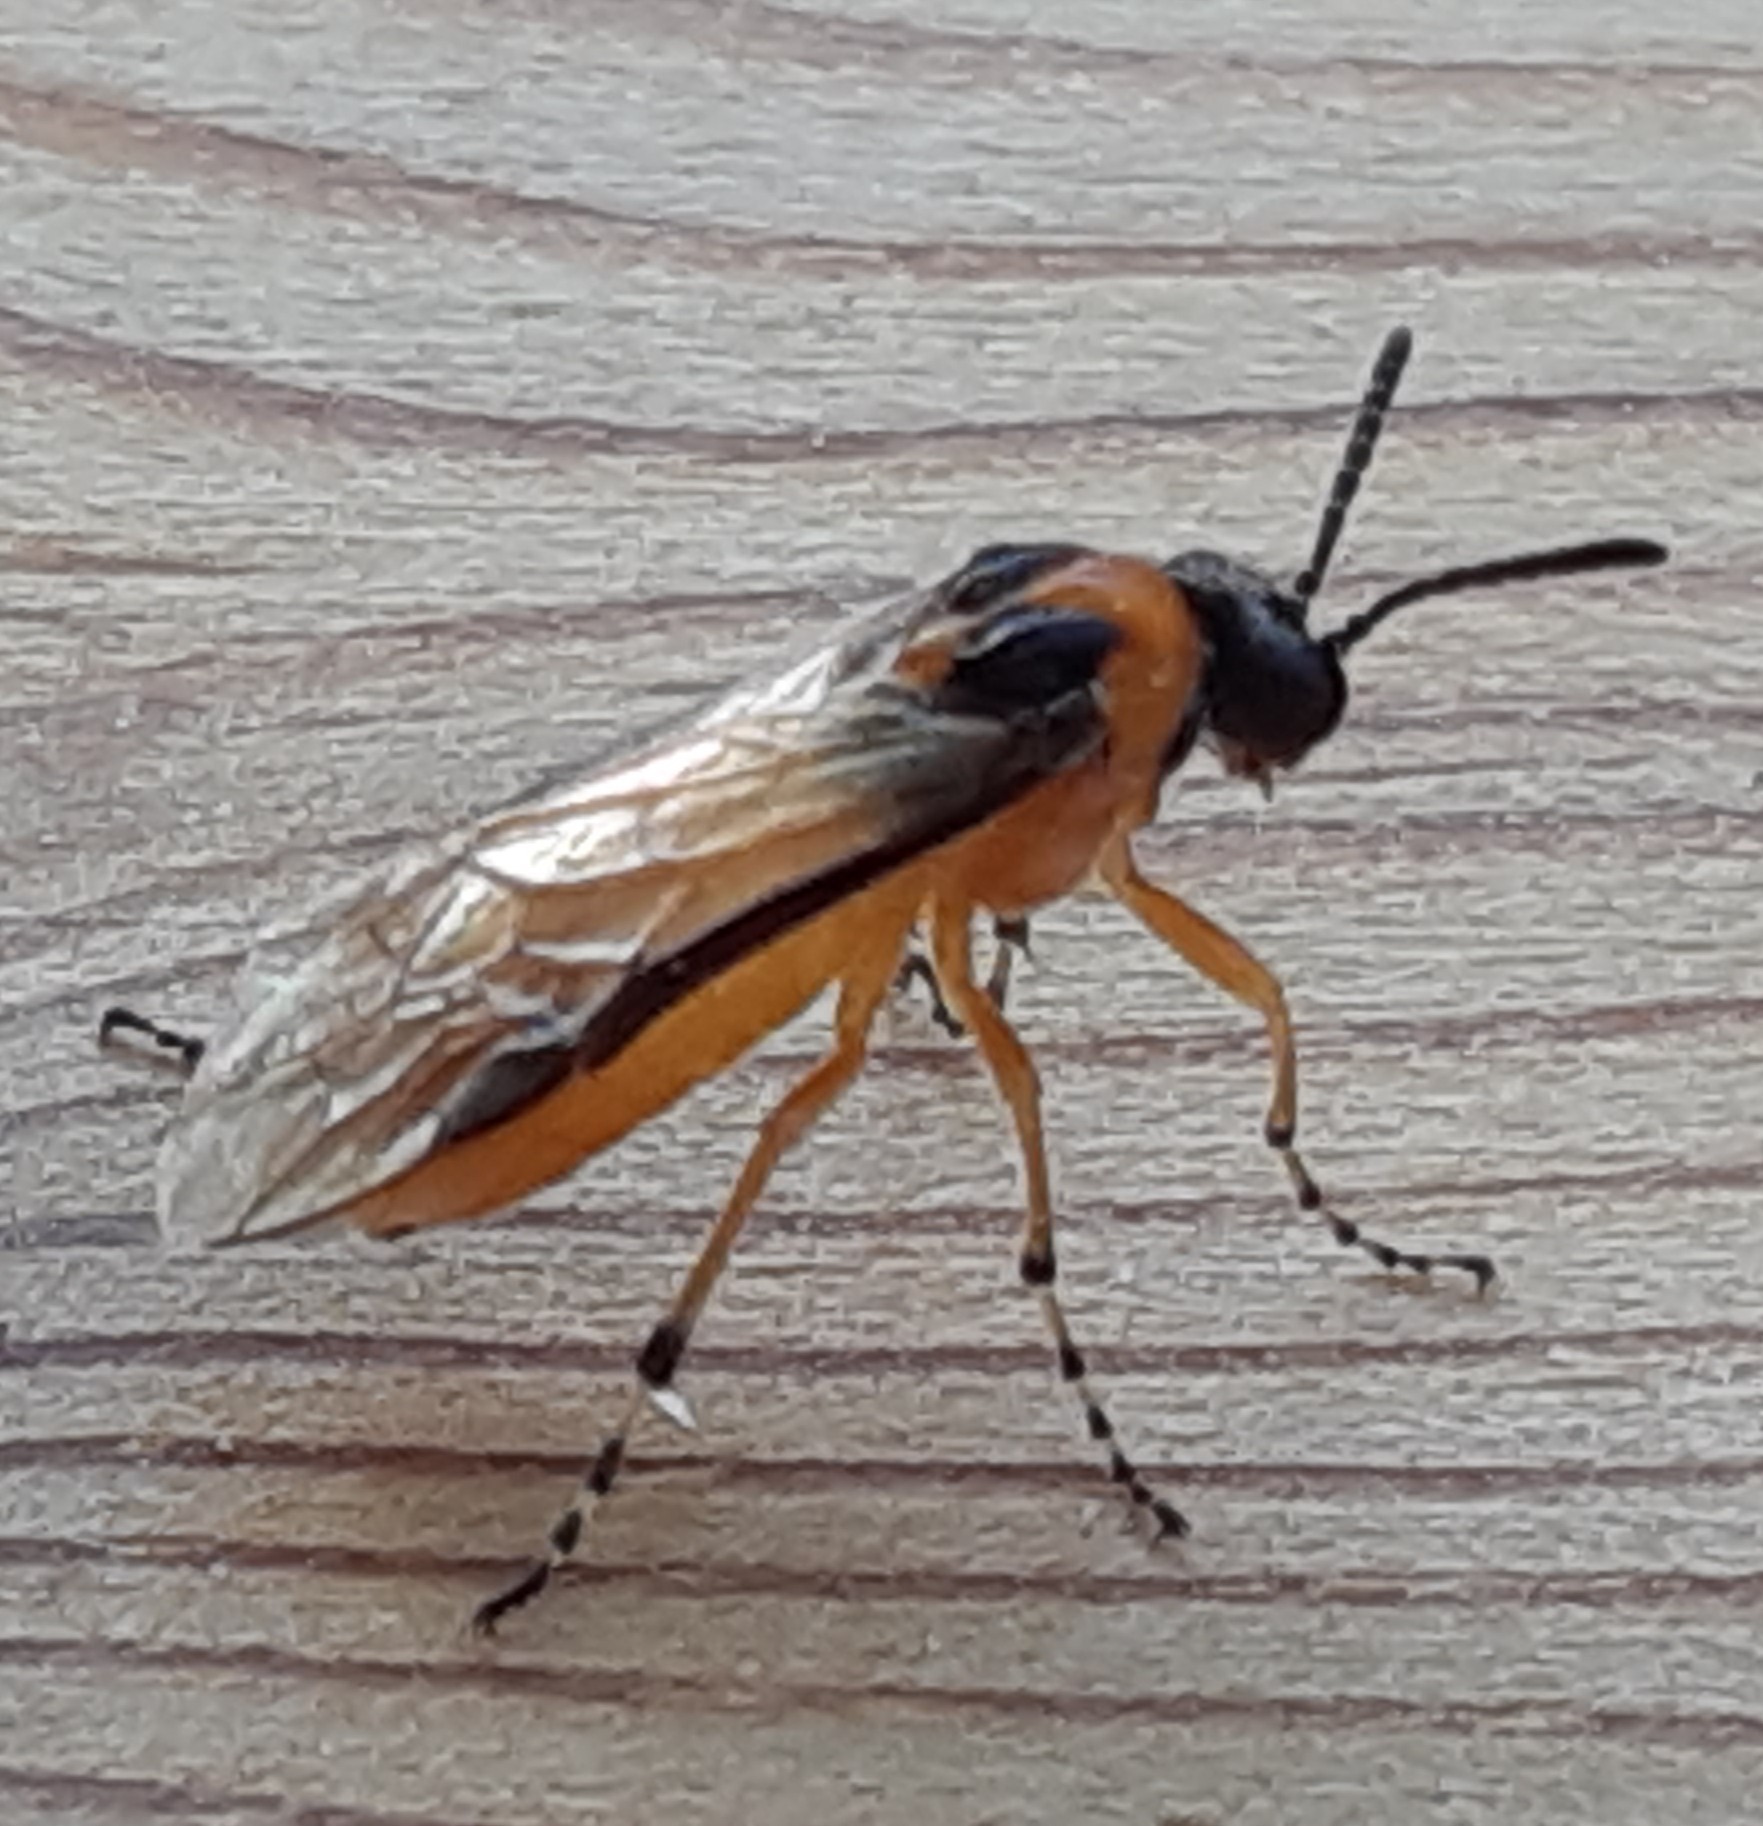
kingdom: Animalia
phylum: Arthropoda
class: Insecta
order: Hymenoptera
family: Tenthredinidae
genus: Athalia
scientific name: Athalia rosae
